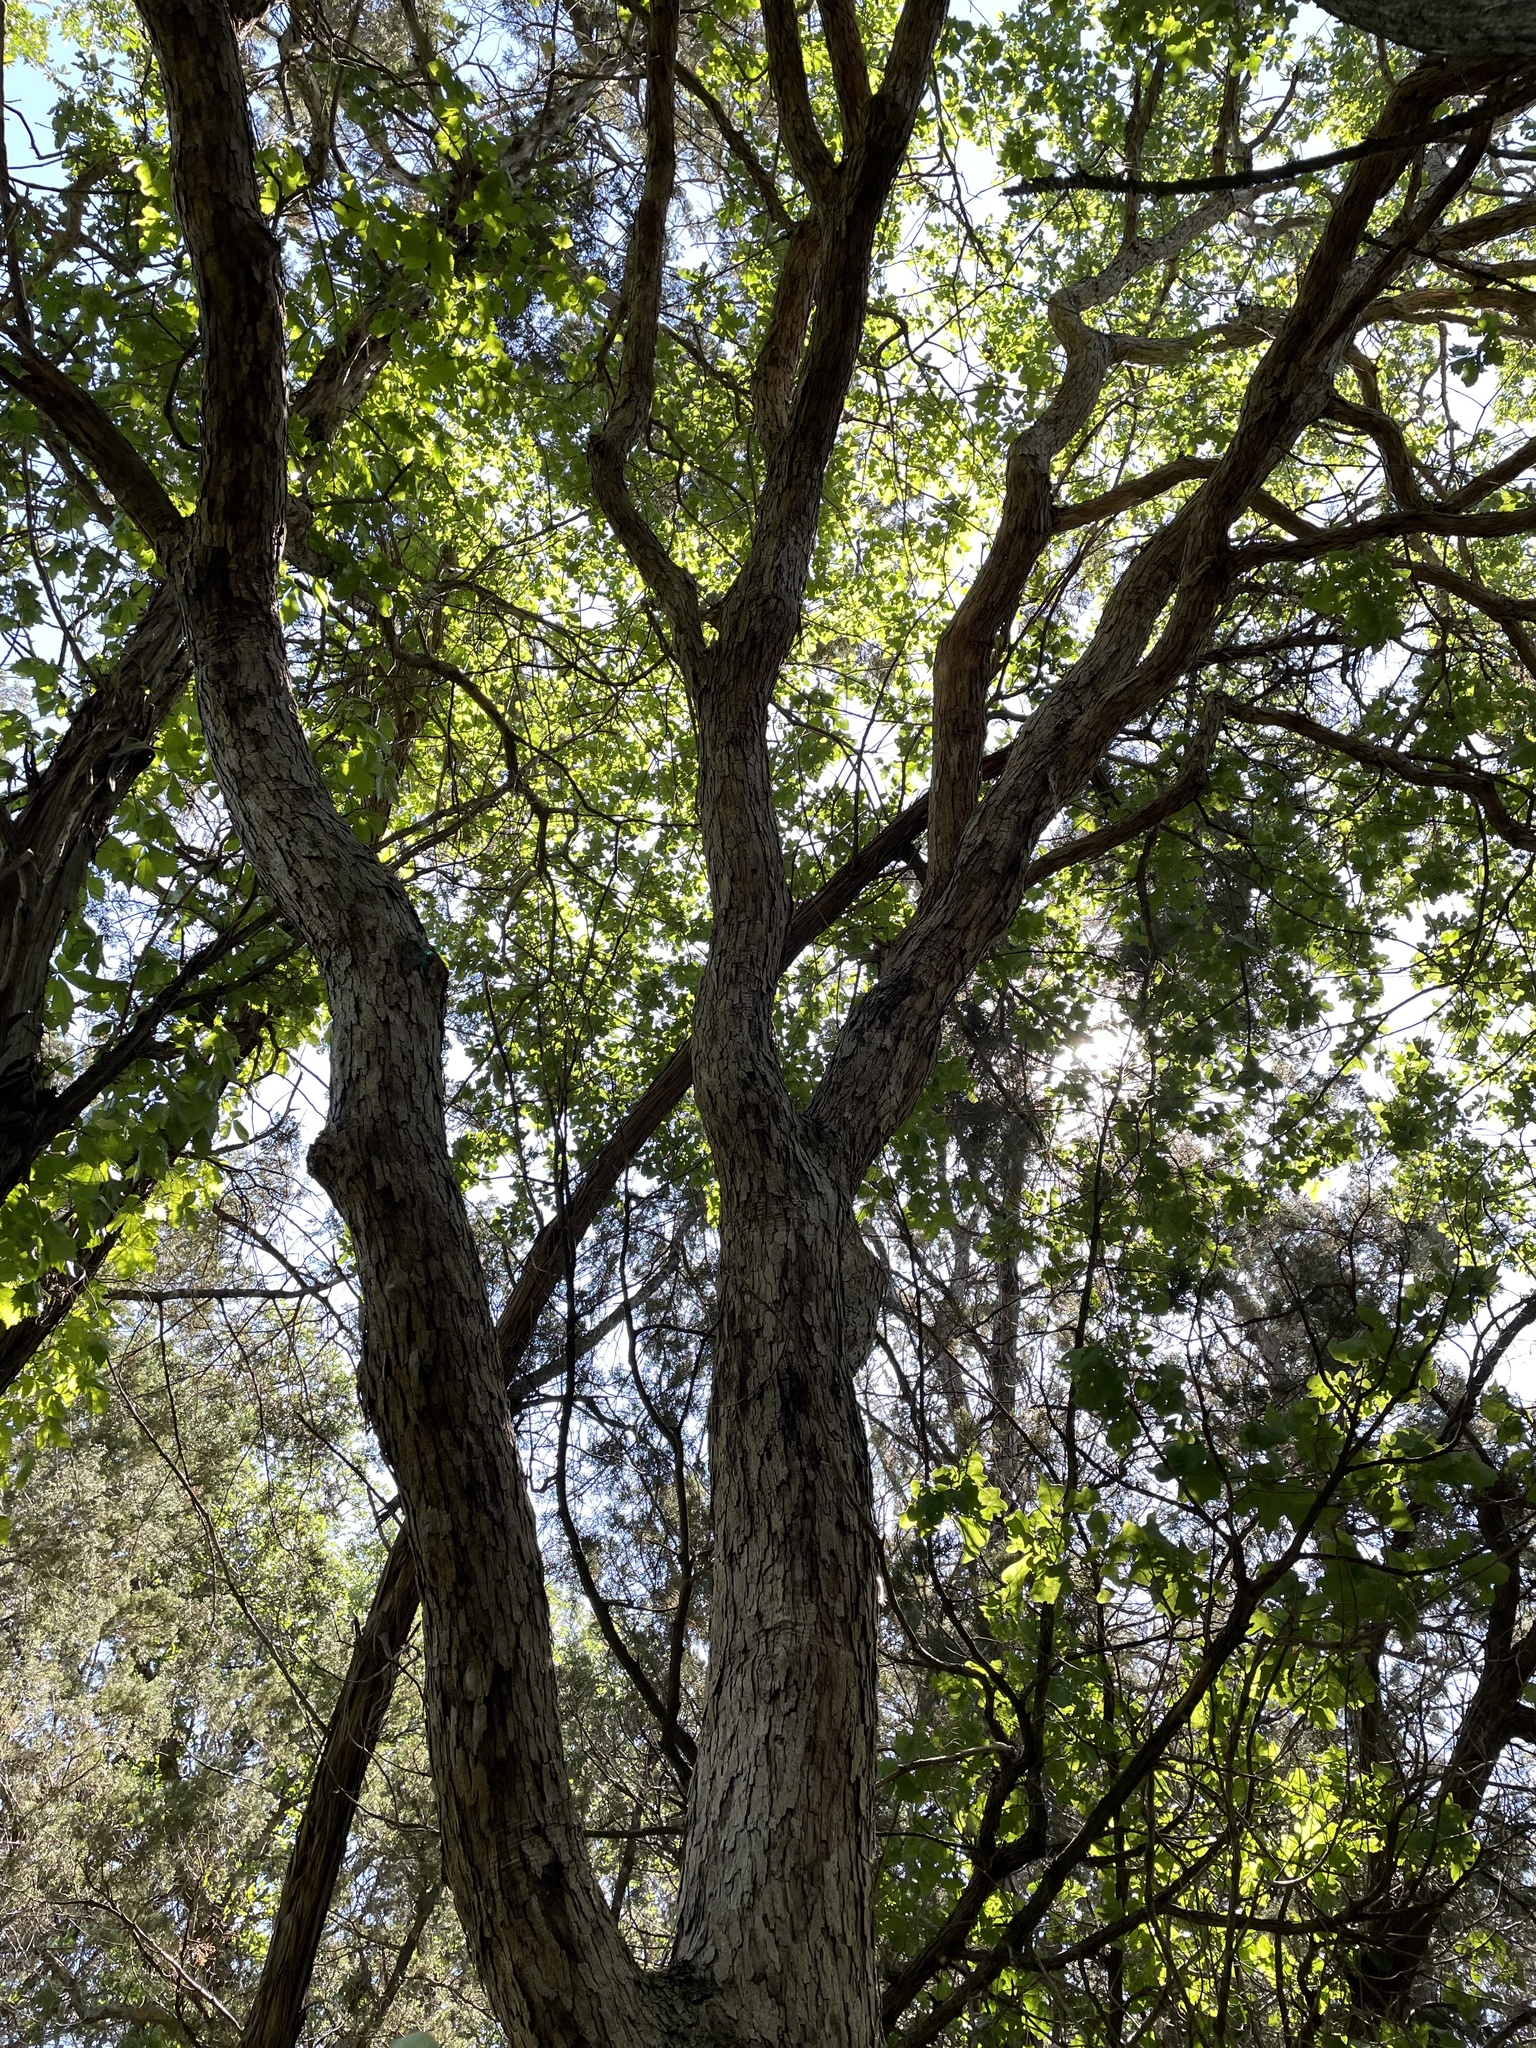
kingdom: Plantae
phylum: Tracheophyta
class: Magnoliopsida
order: Fagales
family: Fagaceae
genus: Quercus
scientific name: Quercus sinuata
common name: Durand oak
